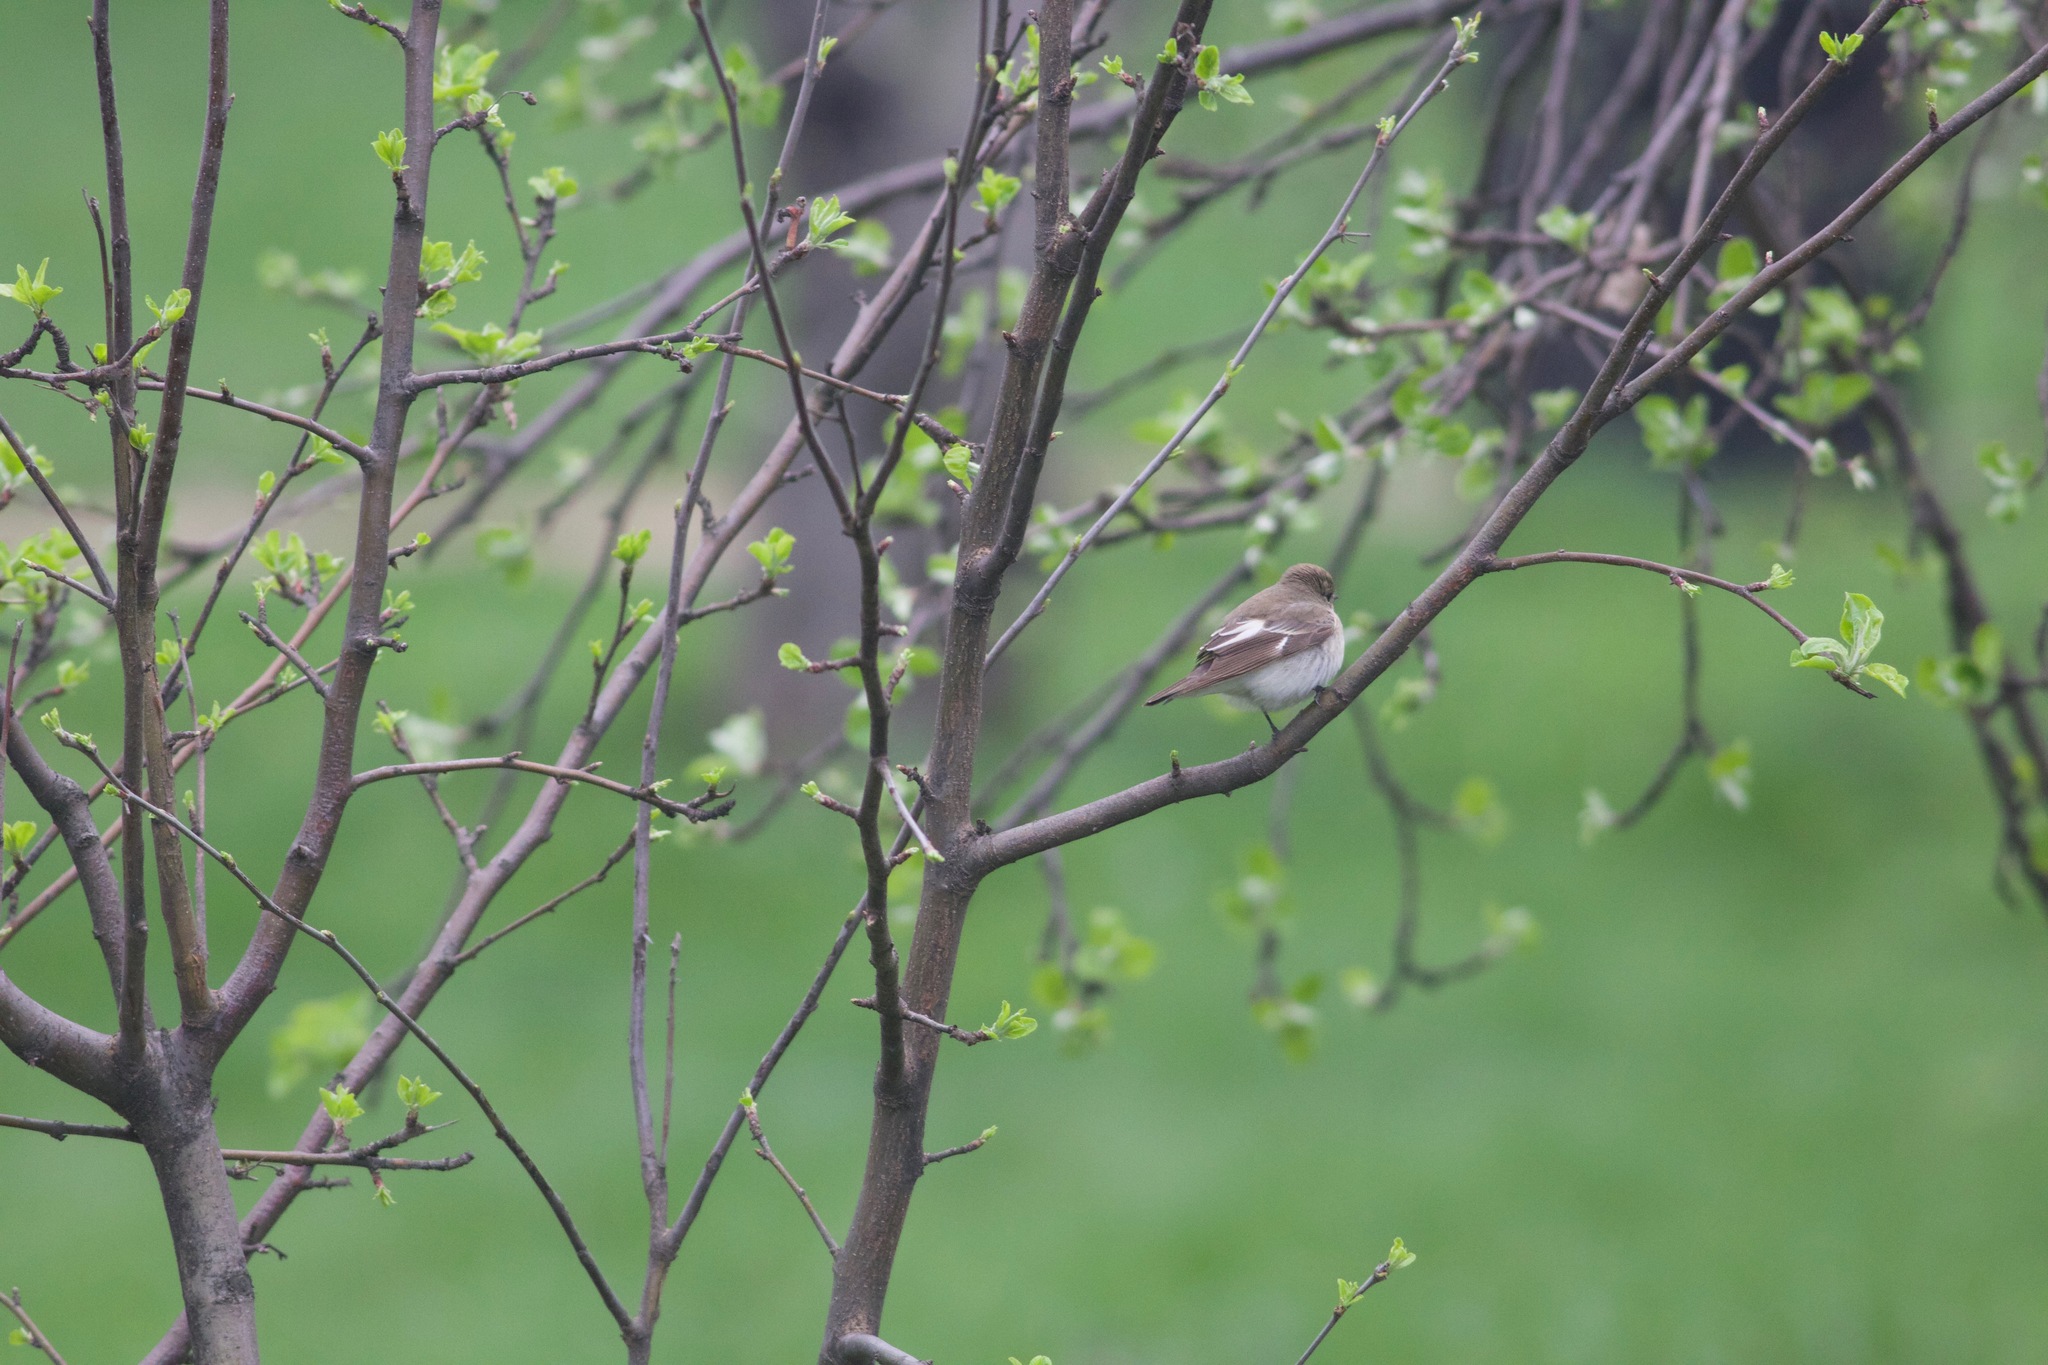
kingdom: Animalia
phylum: Chordata
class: Aves
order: Passeriformes
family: Muscicapidae
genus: Ficedula
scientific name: Ficedula hypoleuca
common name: European pied flycatcher
